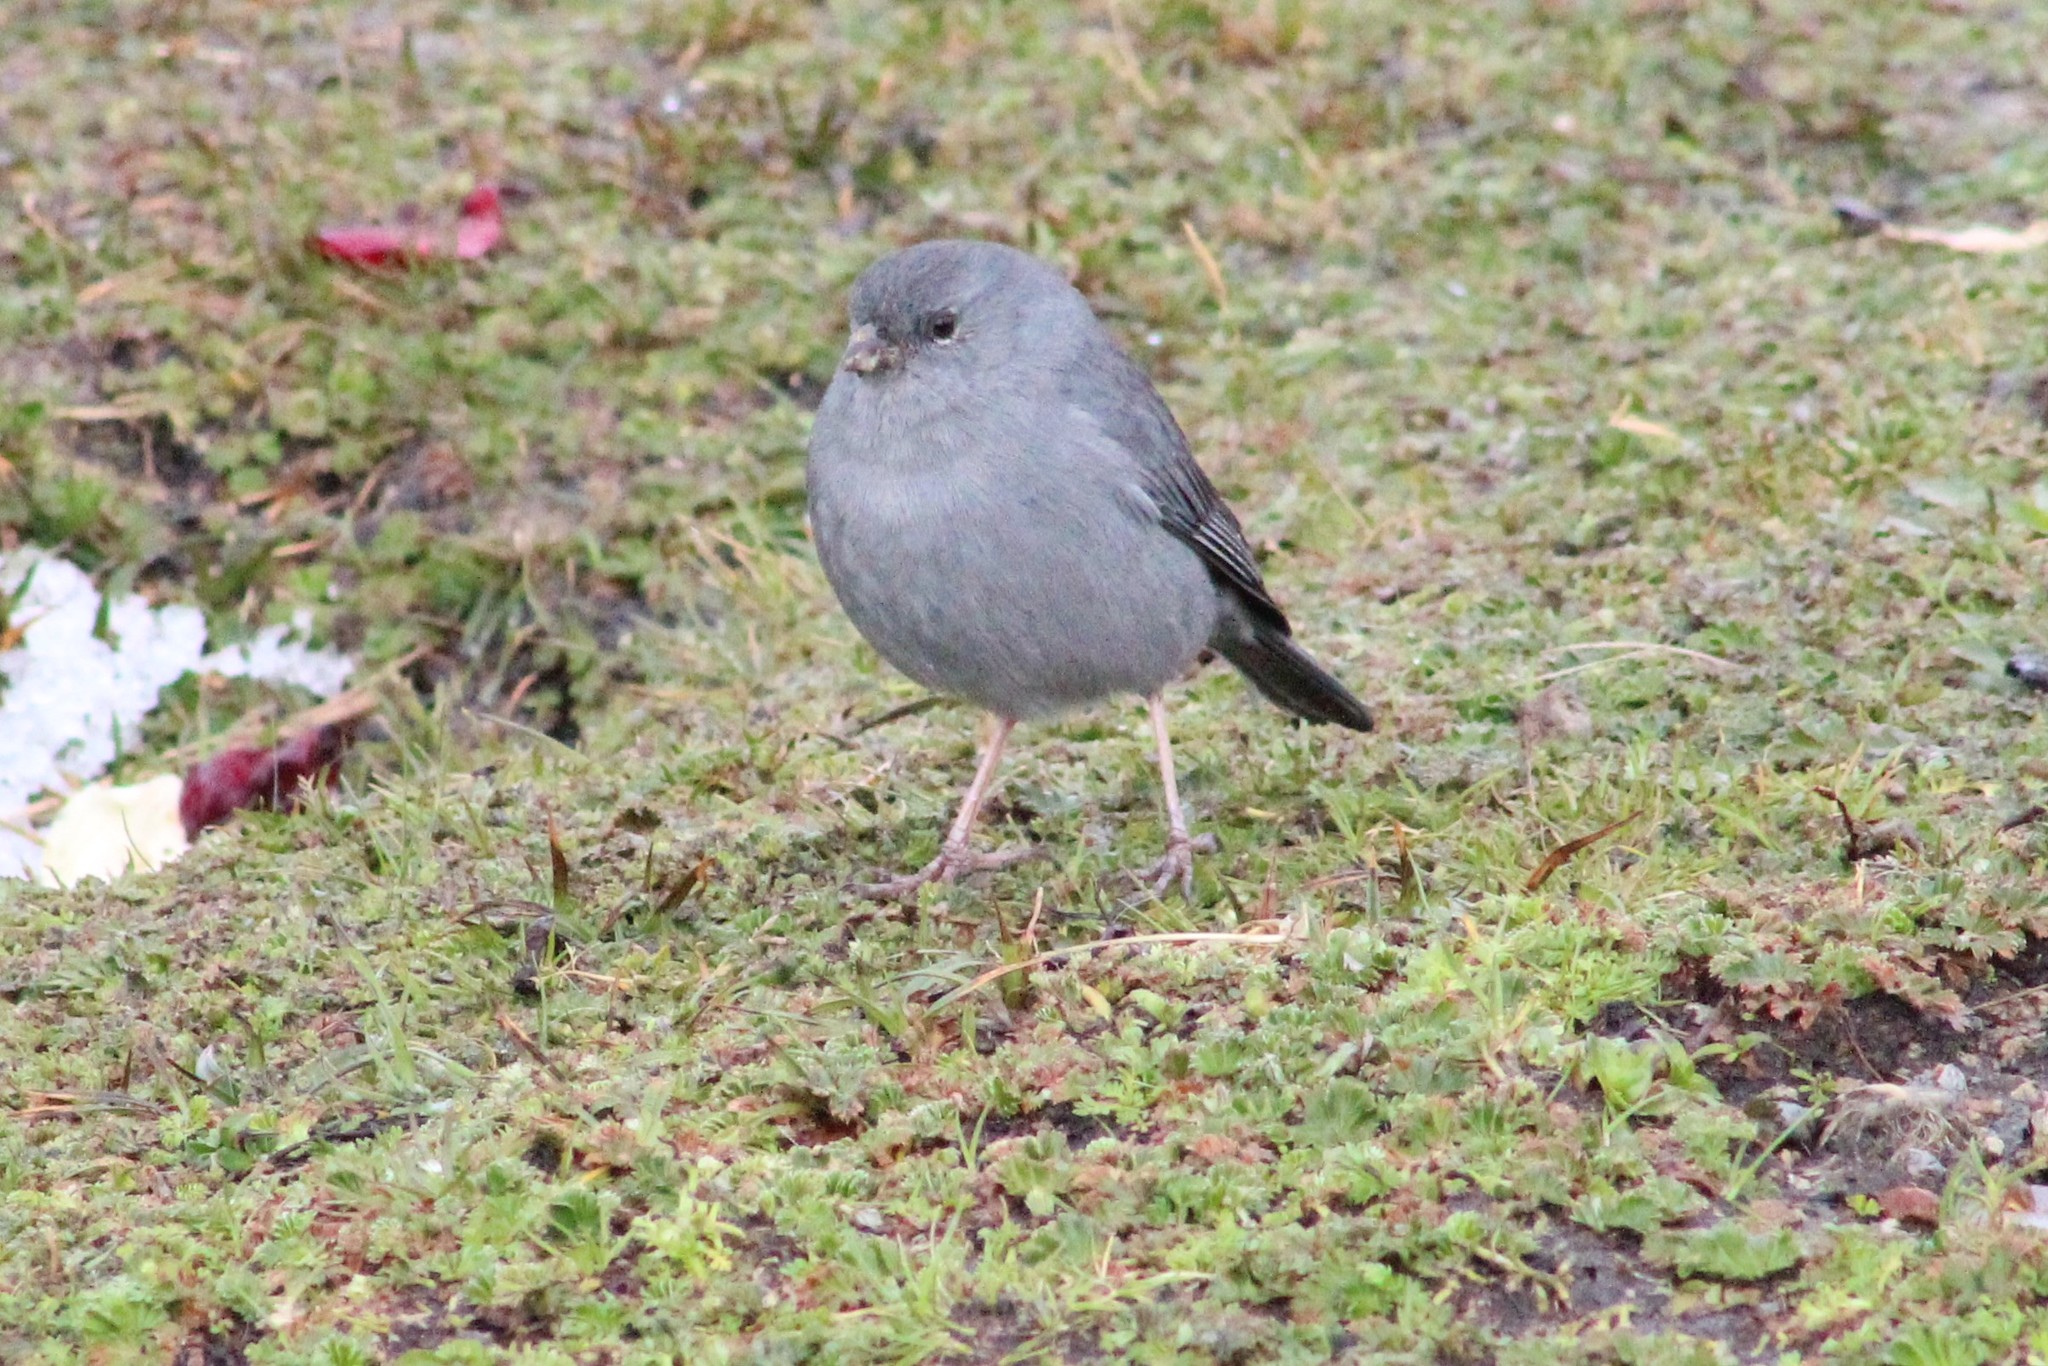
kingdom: Animalia
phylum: Chordata
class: Aves
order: Passeriformes
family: Thraupidae
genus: Geospizopsis
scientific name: Geospizopsis unicolor
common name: Plumbeous sierra-finch
